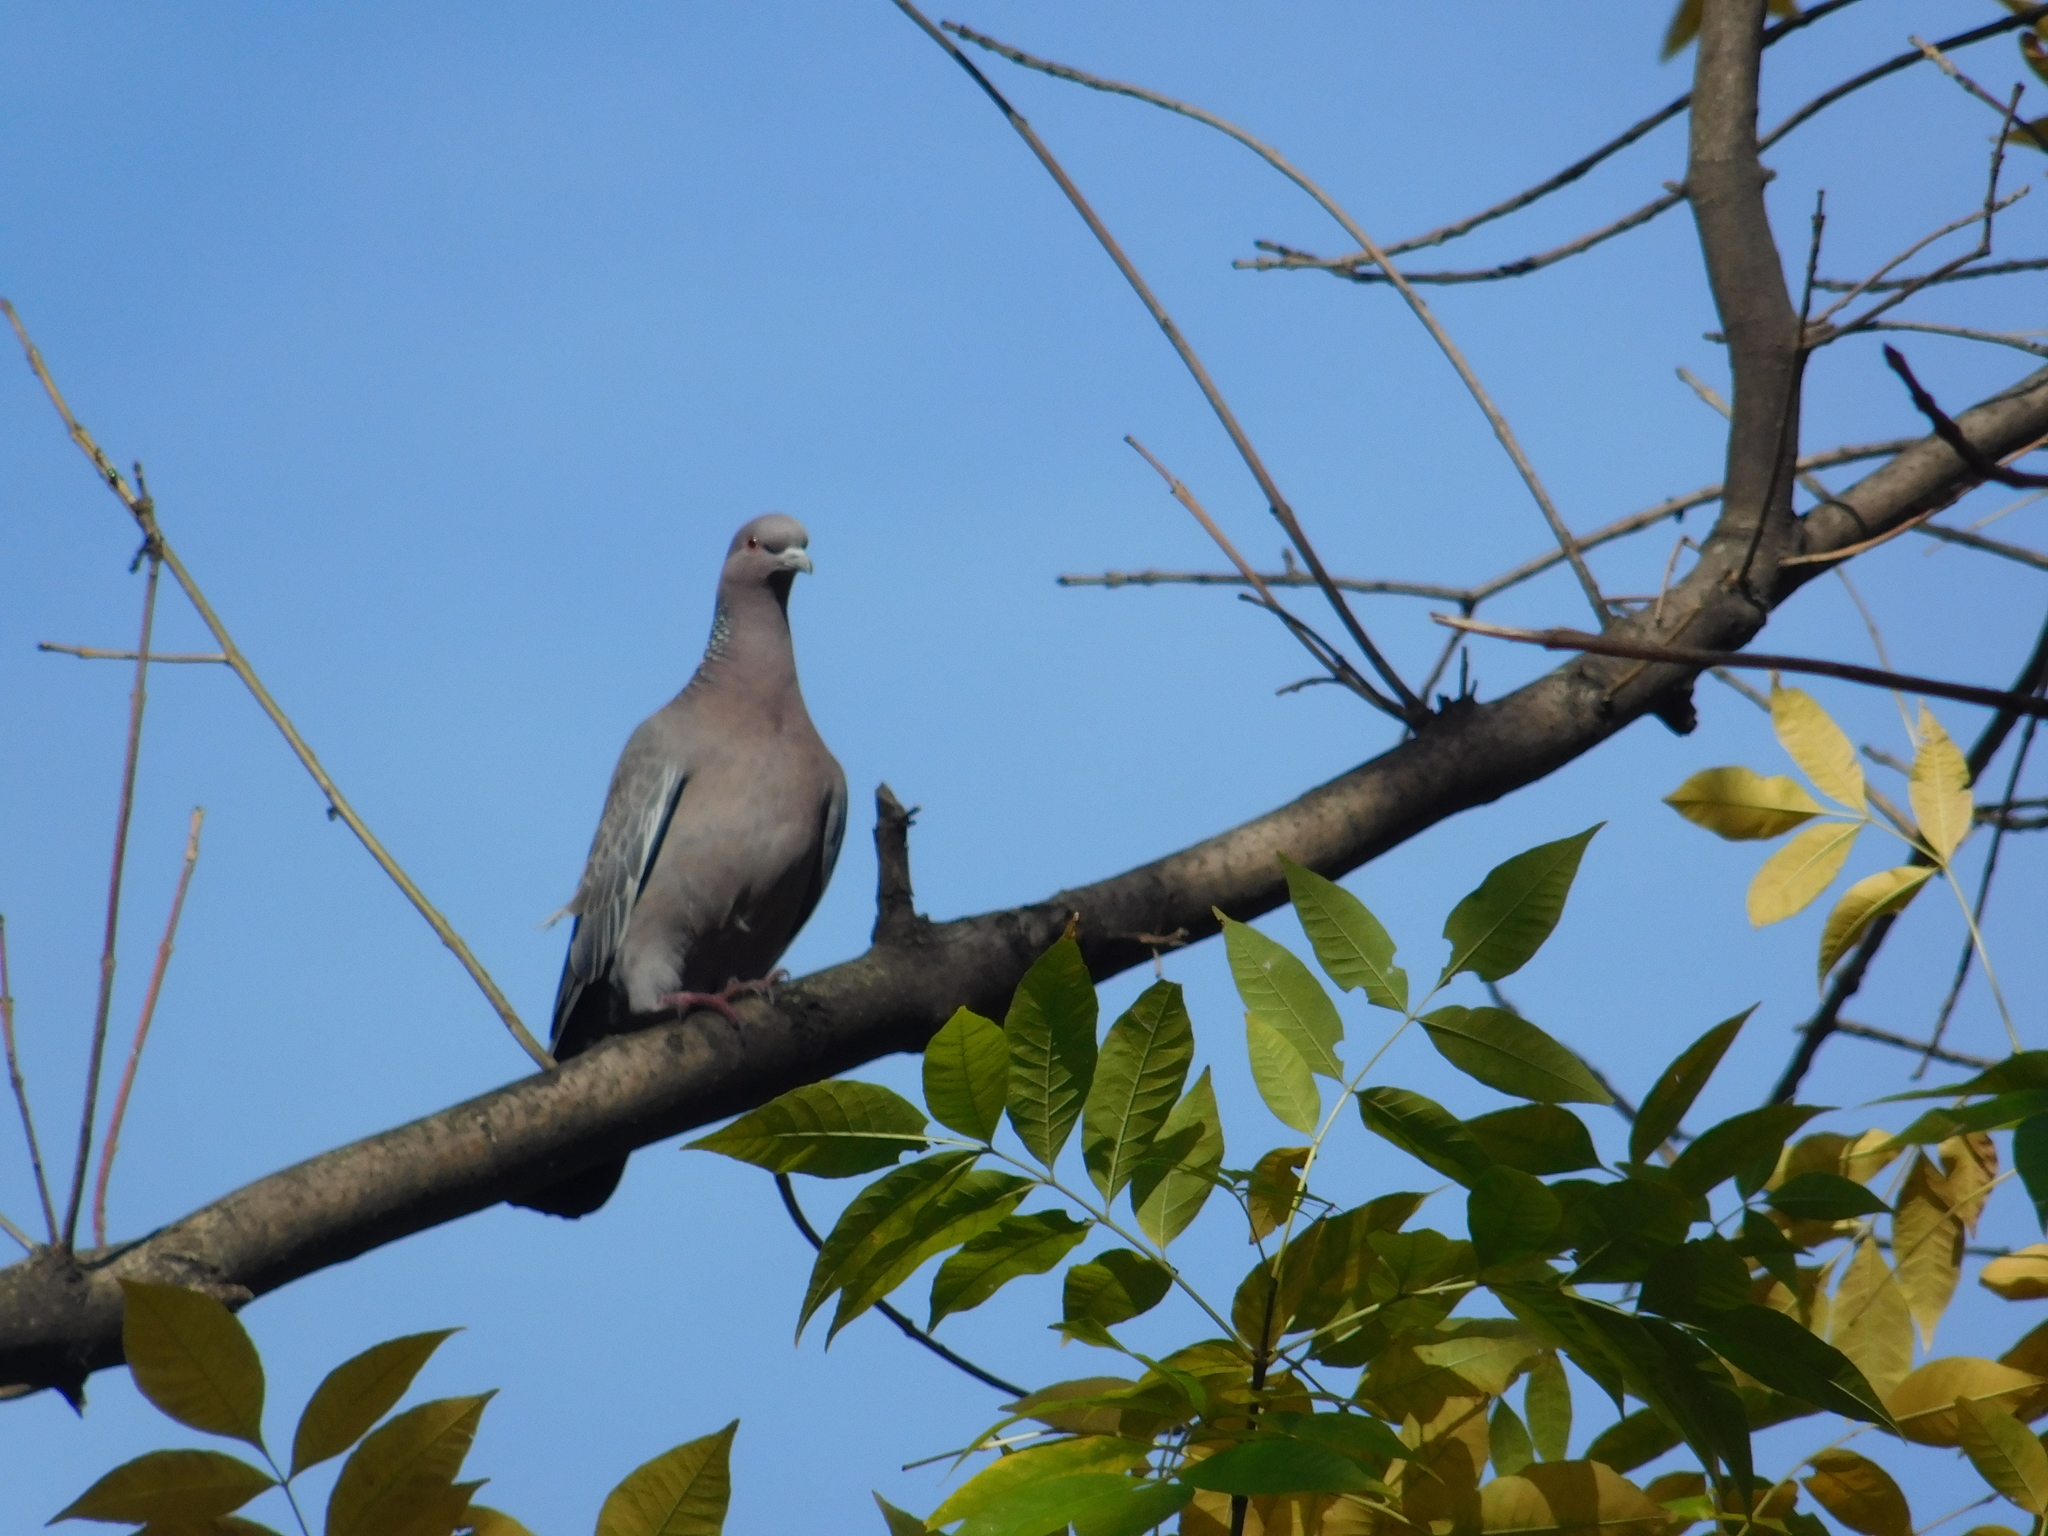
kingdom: Animalia
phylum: Chordata
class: Aves
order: Columbiformes
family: Columbidae
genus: Patagioenas
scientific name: Patagioenas picazuro
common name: Picazuro pigeon
